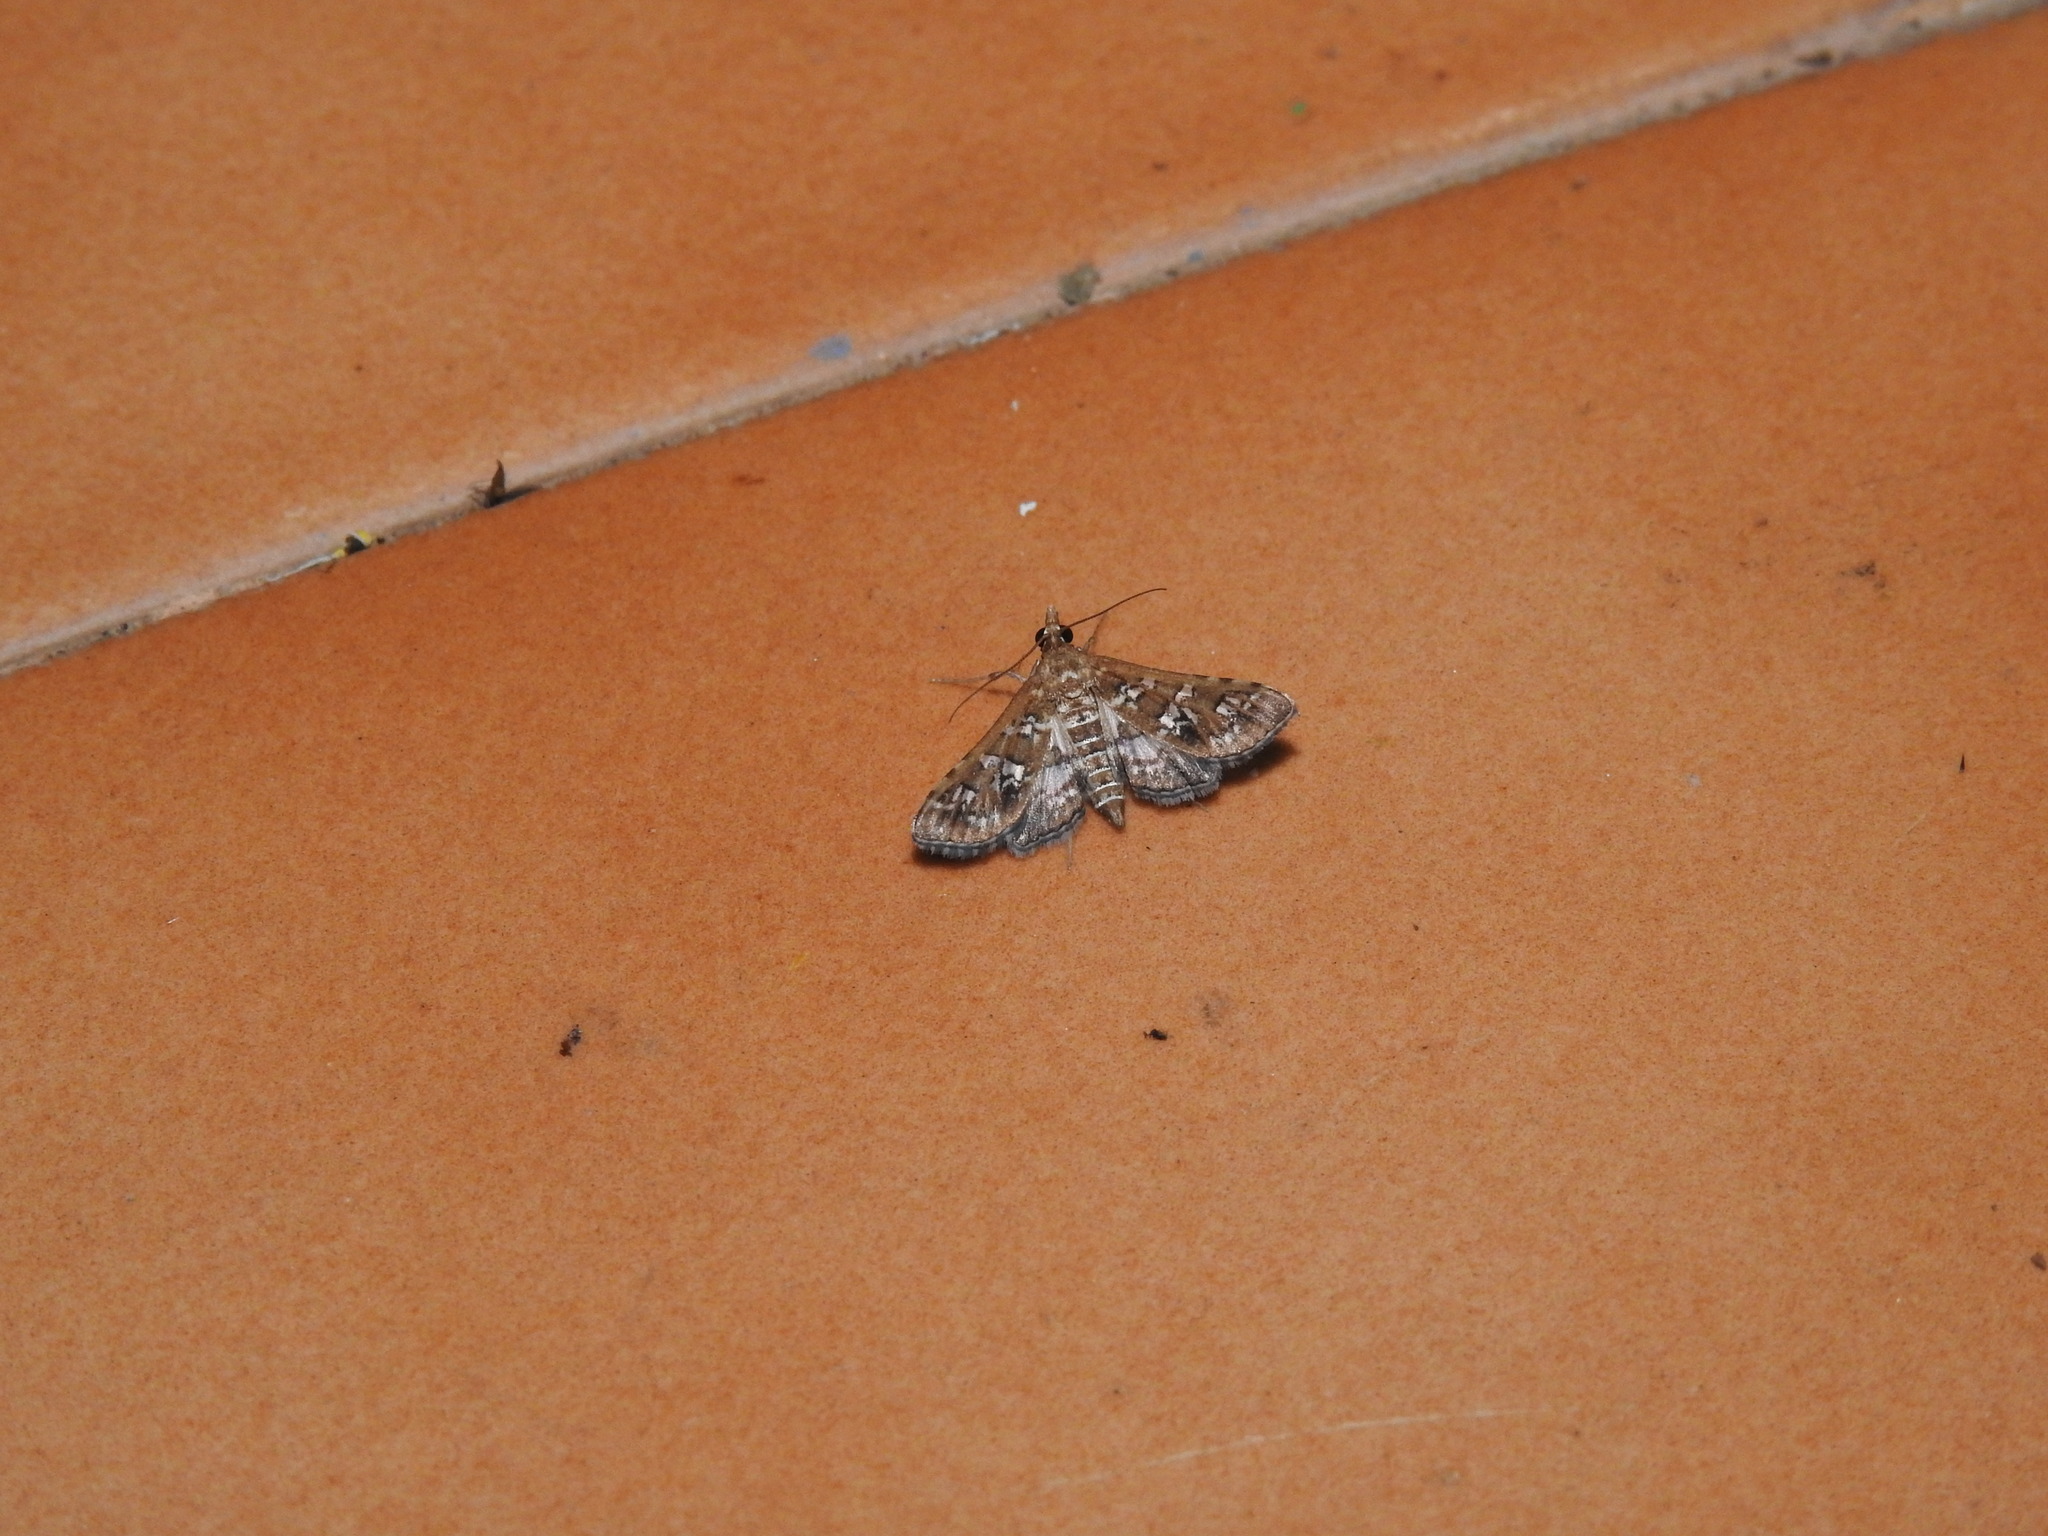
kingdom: Animalia
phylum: Arthropoda
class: Insecta
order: Lepidoptera
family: Crambidae
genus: Sameodes
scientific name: Sameodes cancellalis
